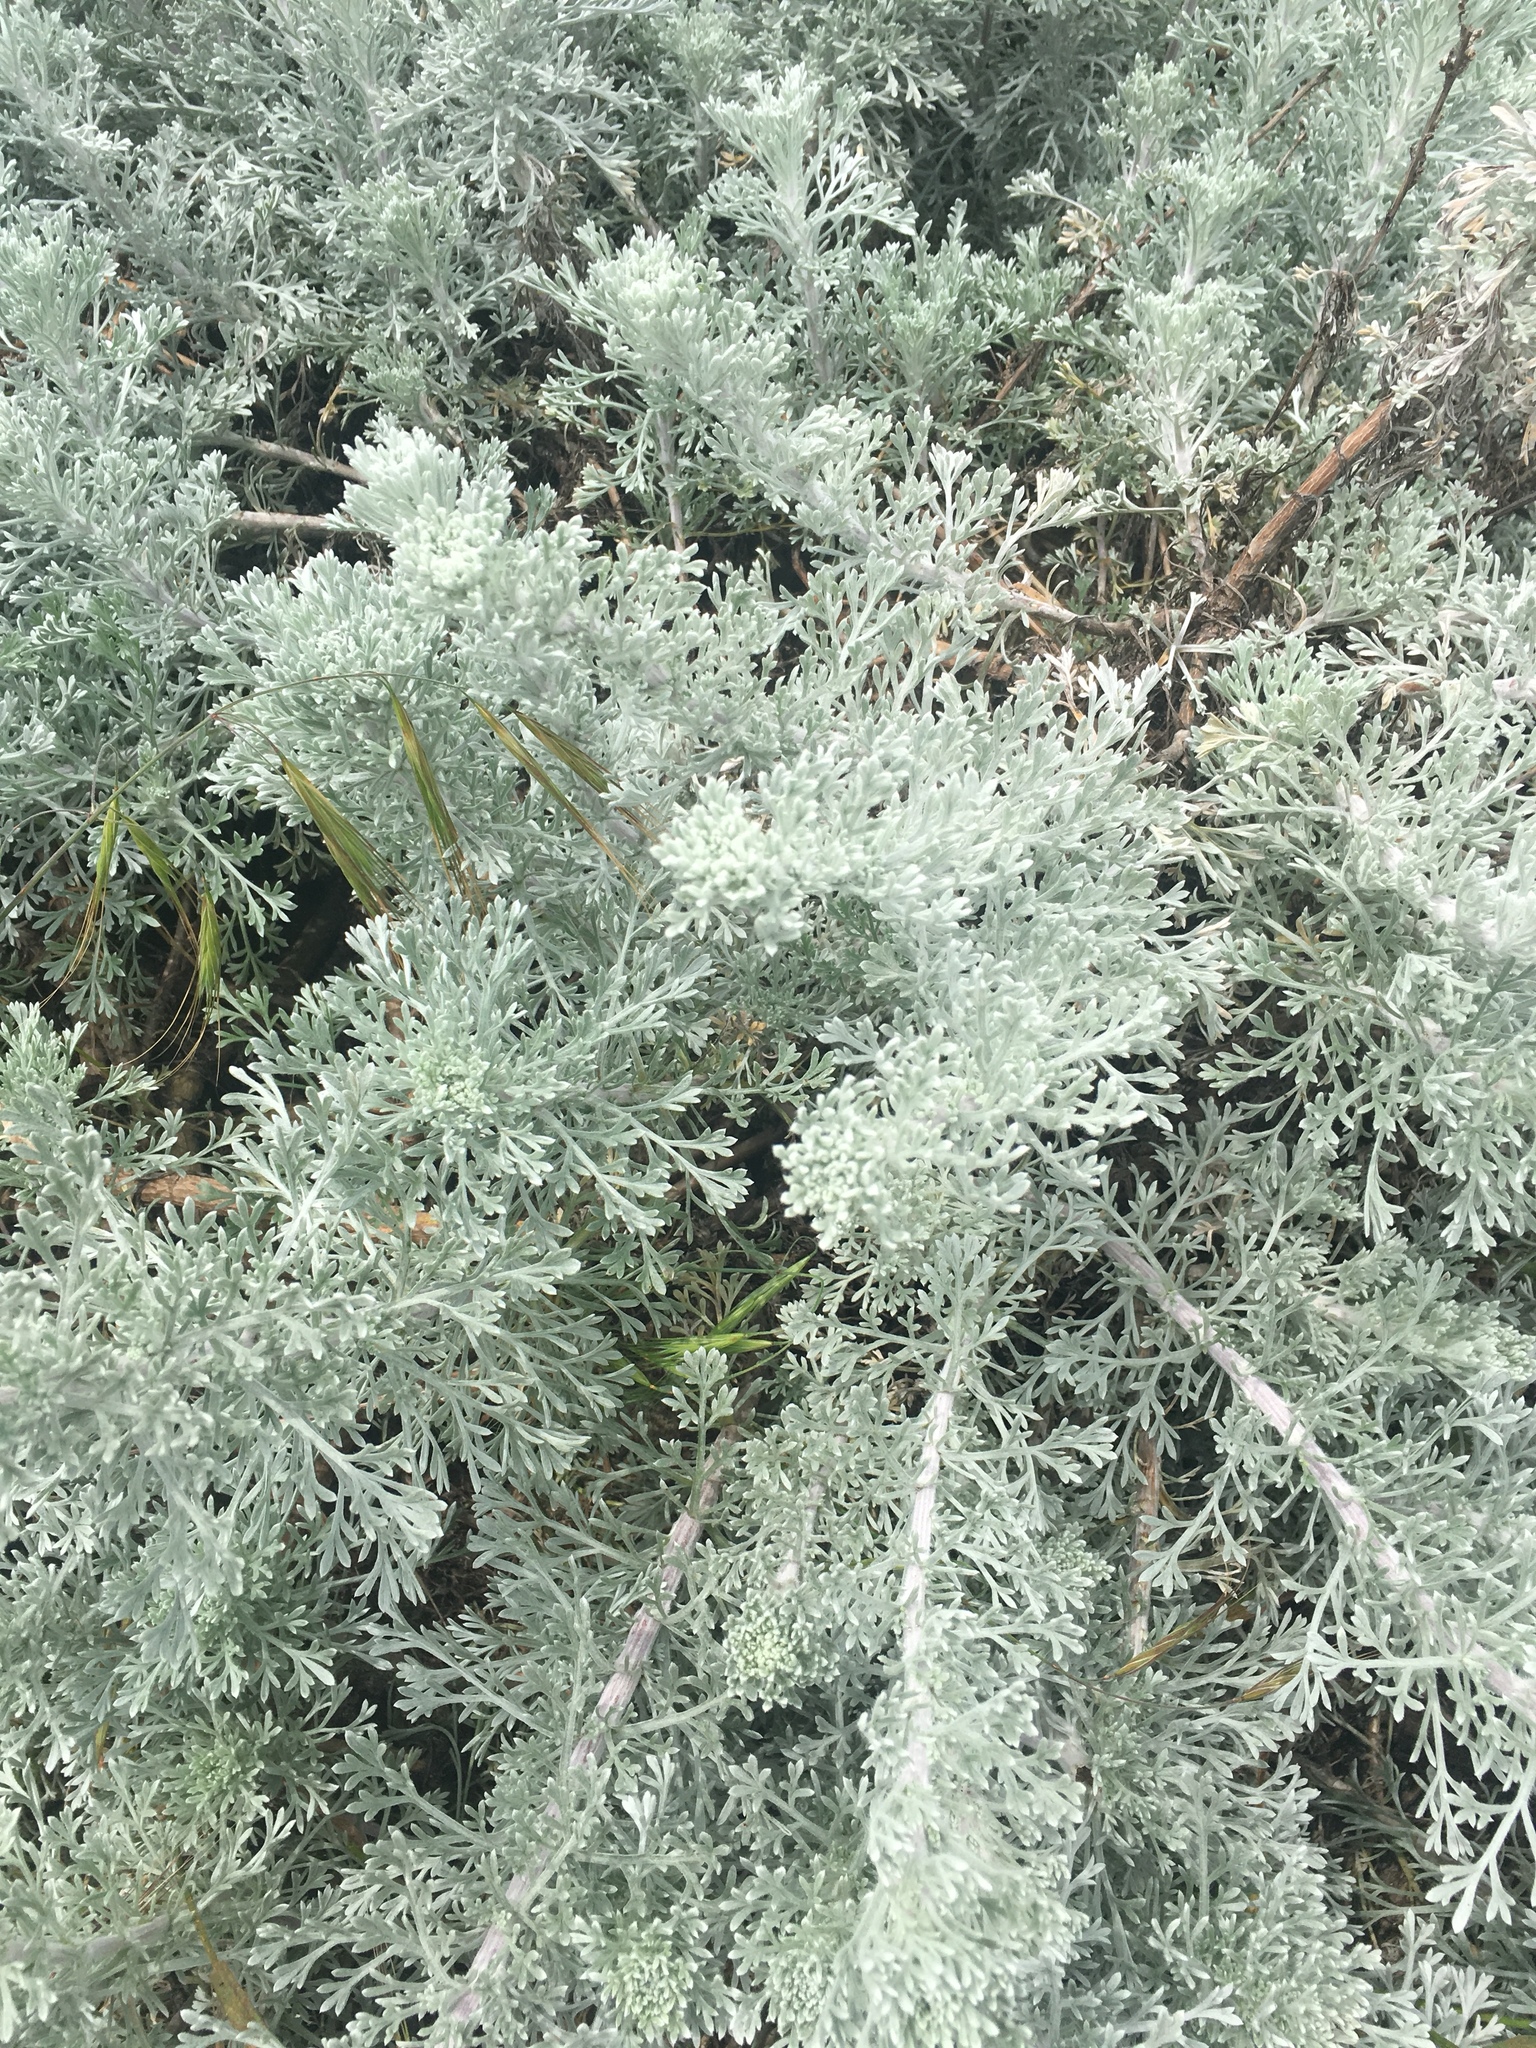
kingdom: Plantae
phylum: Tracheophyta
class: Magnoliopsida
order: Asterales
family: Asteraceae
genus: Artemisia
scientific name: Artemisia pycnocephala
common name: Coastal sagewort
